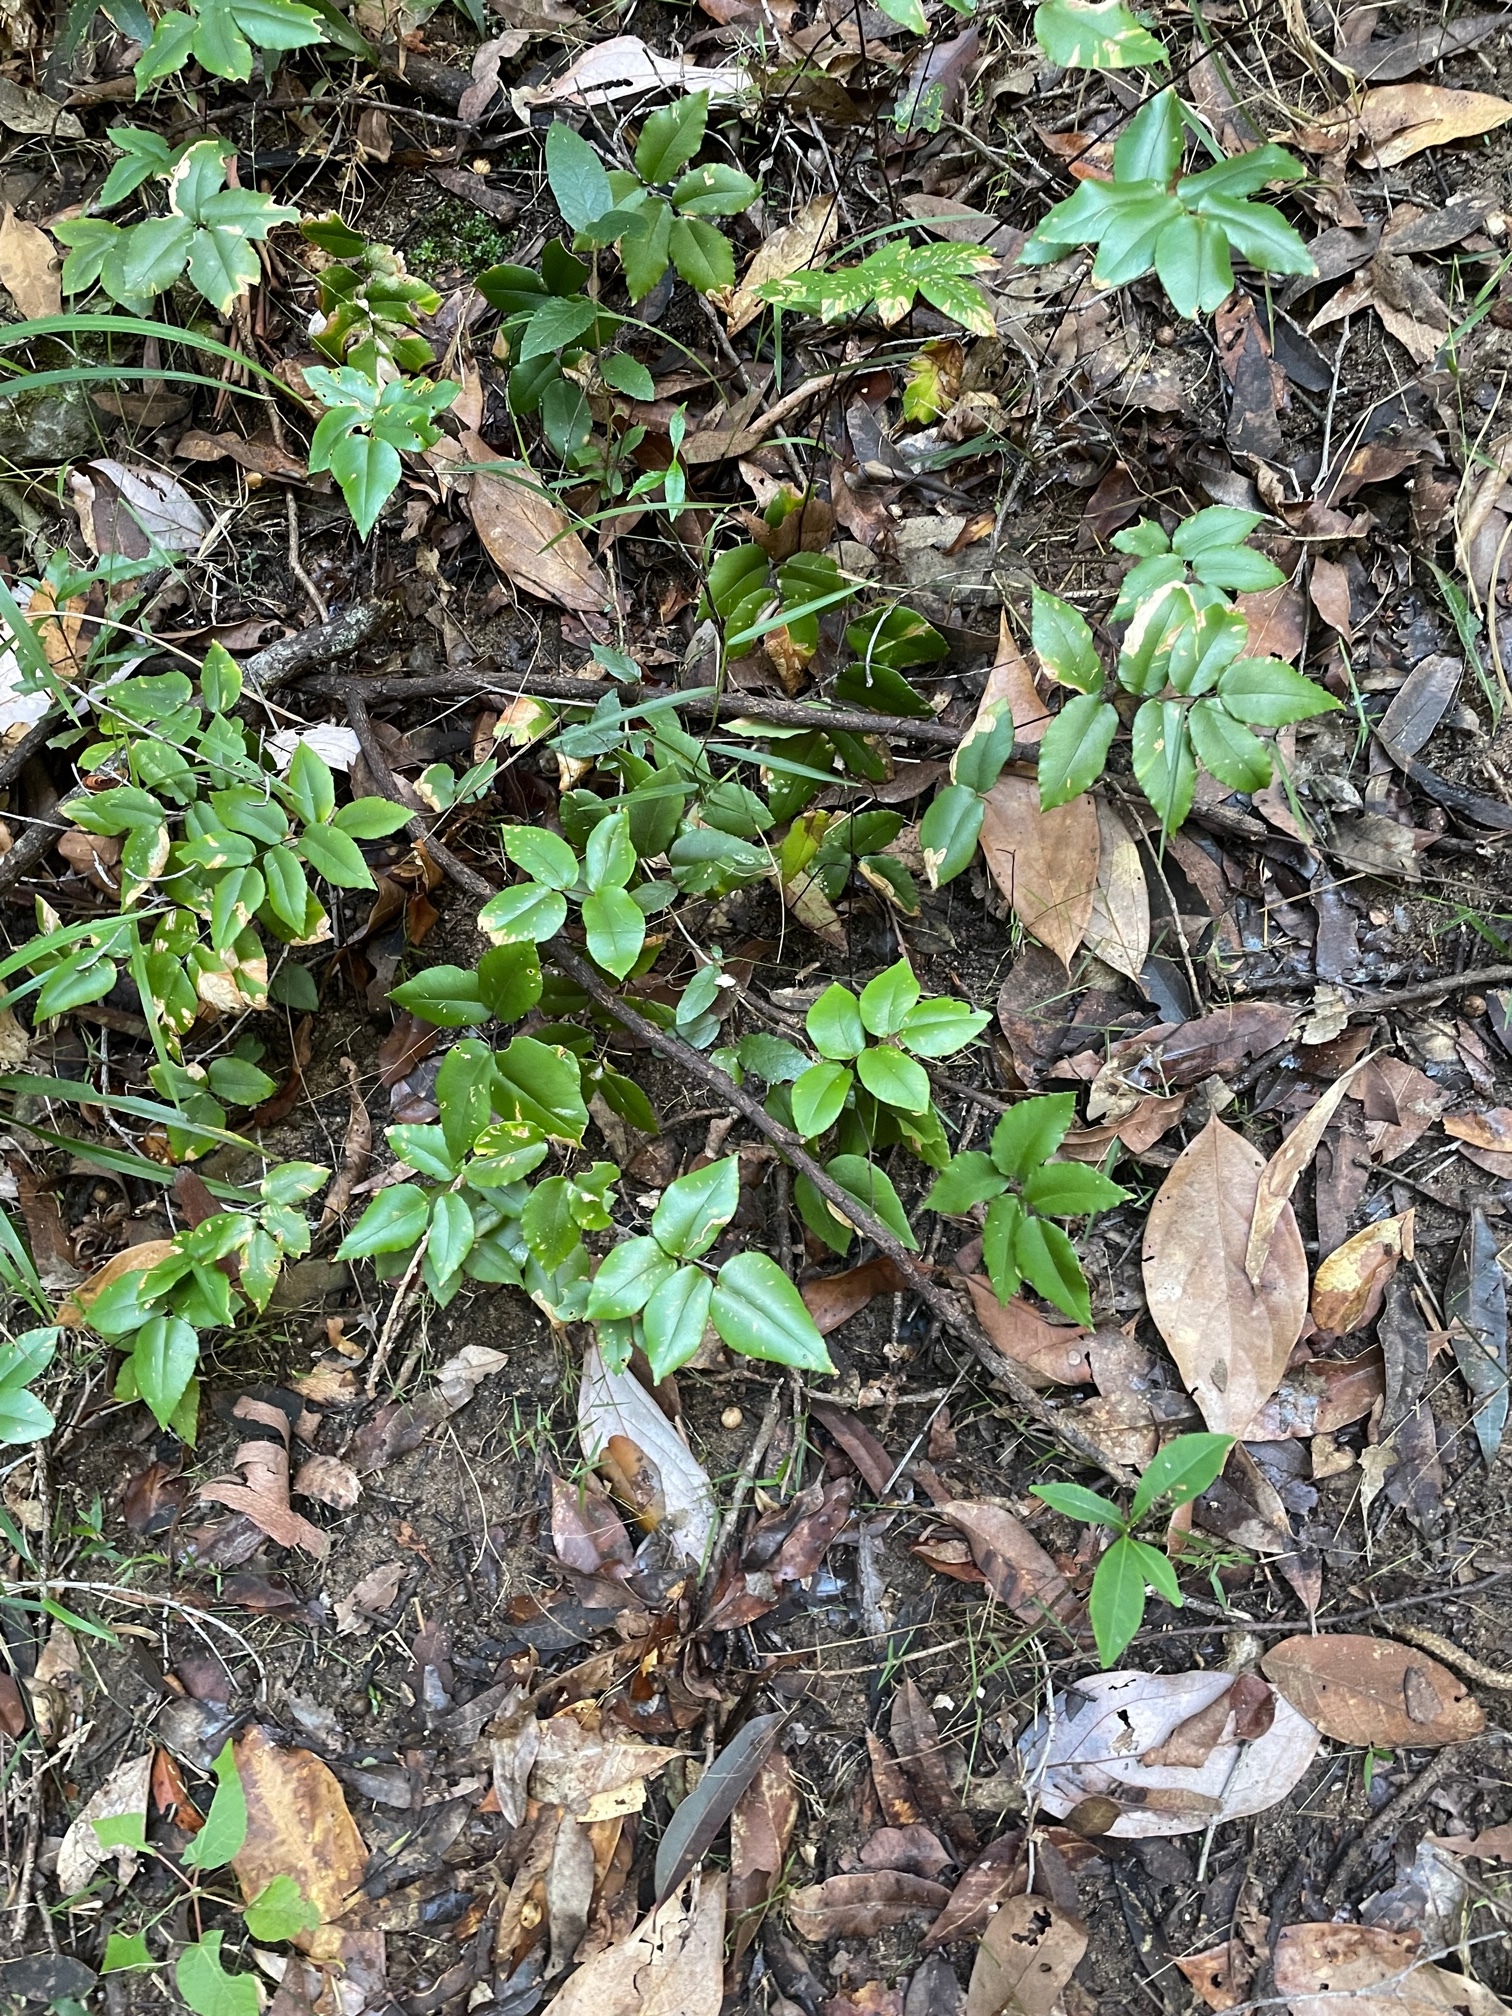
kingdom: Plantae
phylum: Tracheophyta
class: Polypodiopsida
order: Polypodiales
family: Pteridaceae
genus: Pellaea
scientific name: Pellaea paradoxa
